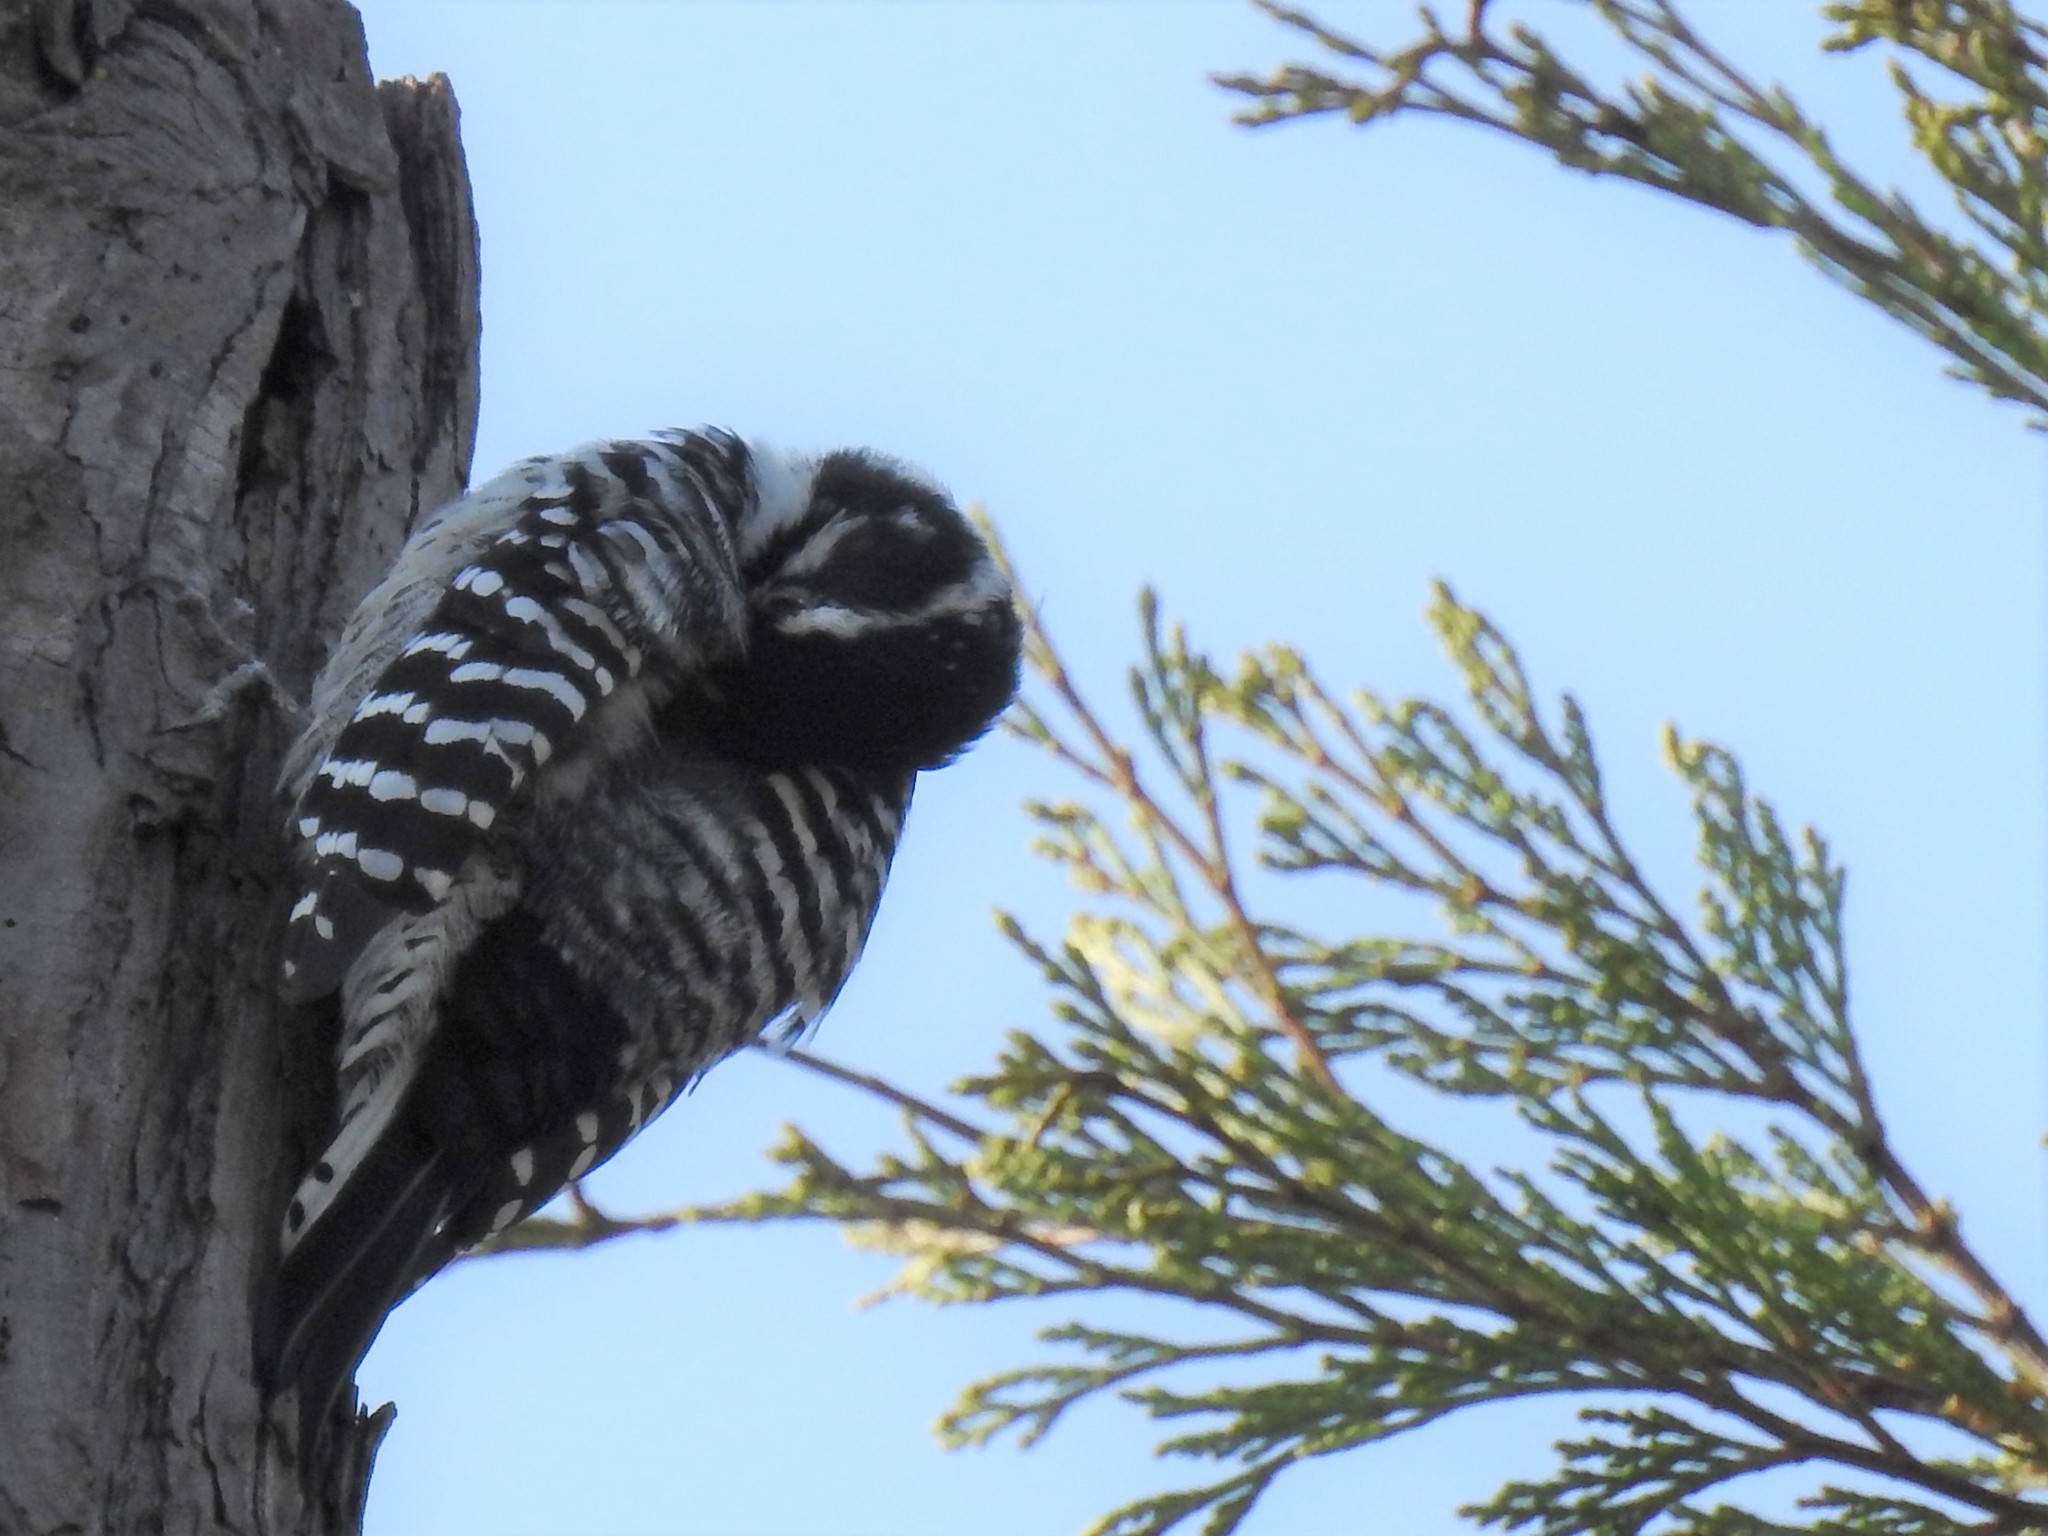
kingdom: Animalia
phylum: Chordata
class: Aves
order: Piciformes
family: Picidae
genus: Dryobates
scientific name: Dryobates nuttallii
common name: Nuttall's woodpecker
